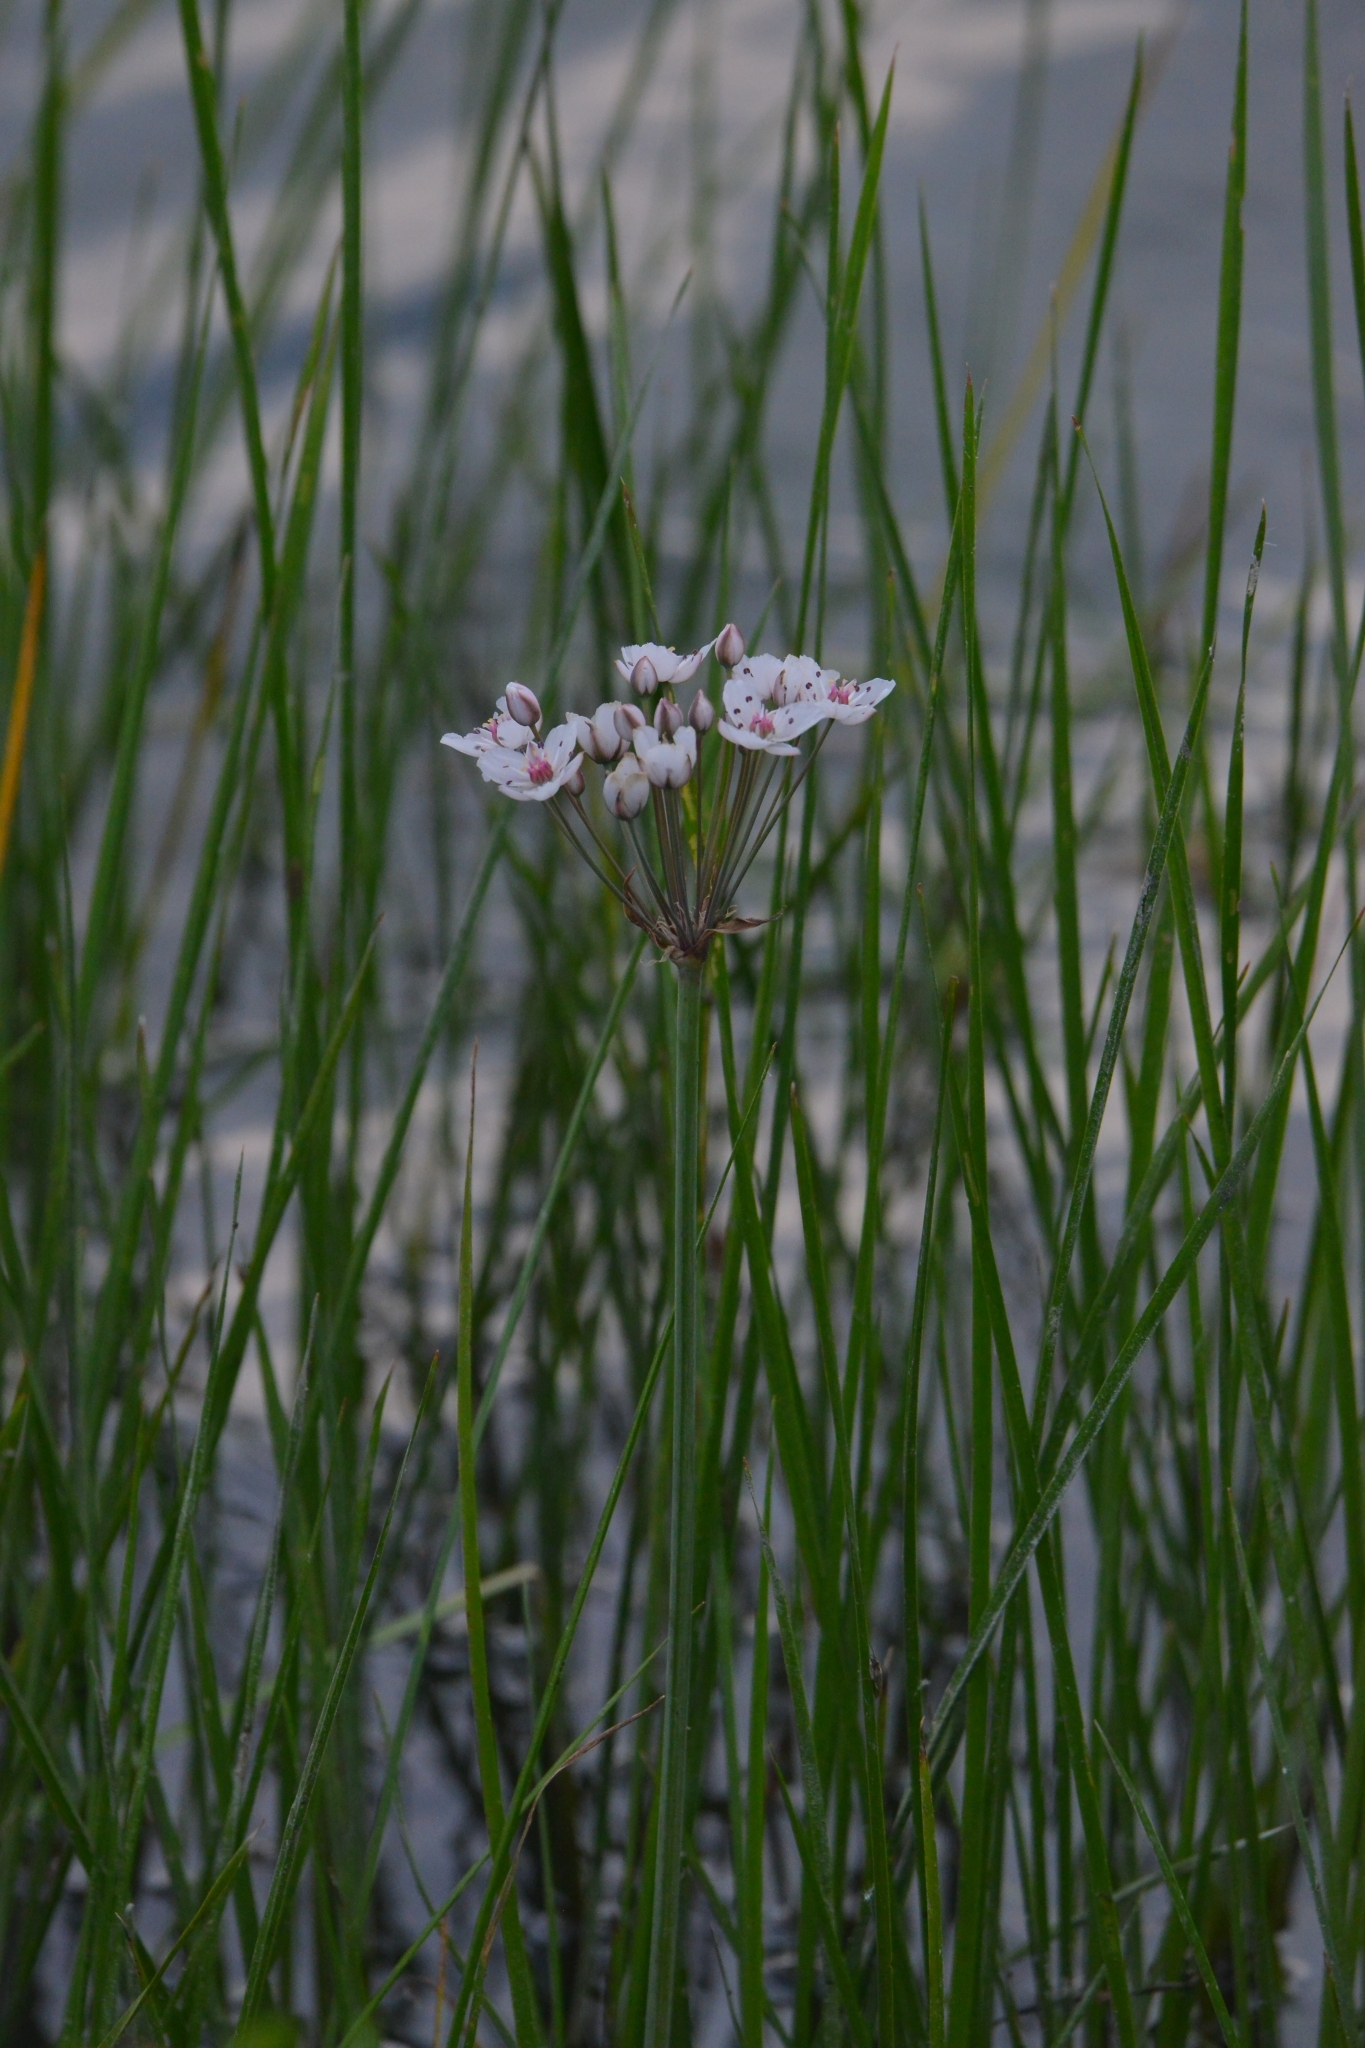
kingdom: Plantae
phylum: Tracheophyta
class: Liliopsida
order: Alismatales
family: Butomaceae
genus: Butomus
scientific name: Butomus umbellatus
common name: Flowering-rush
